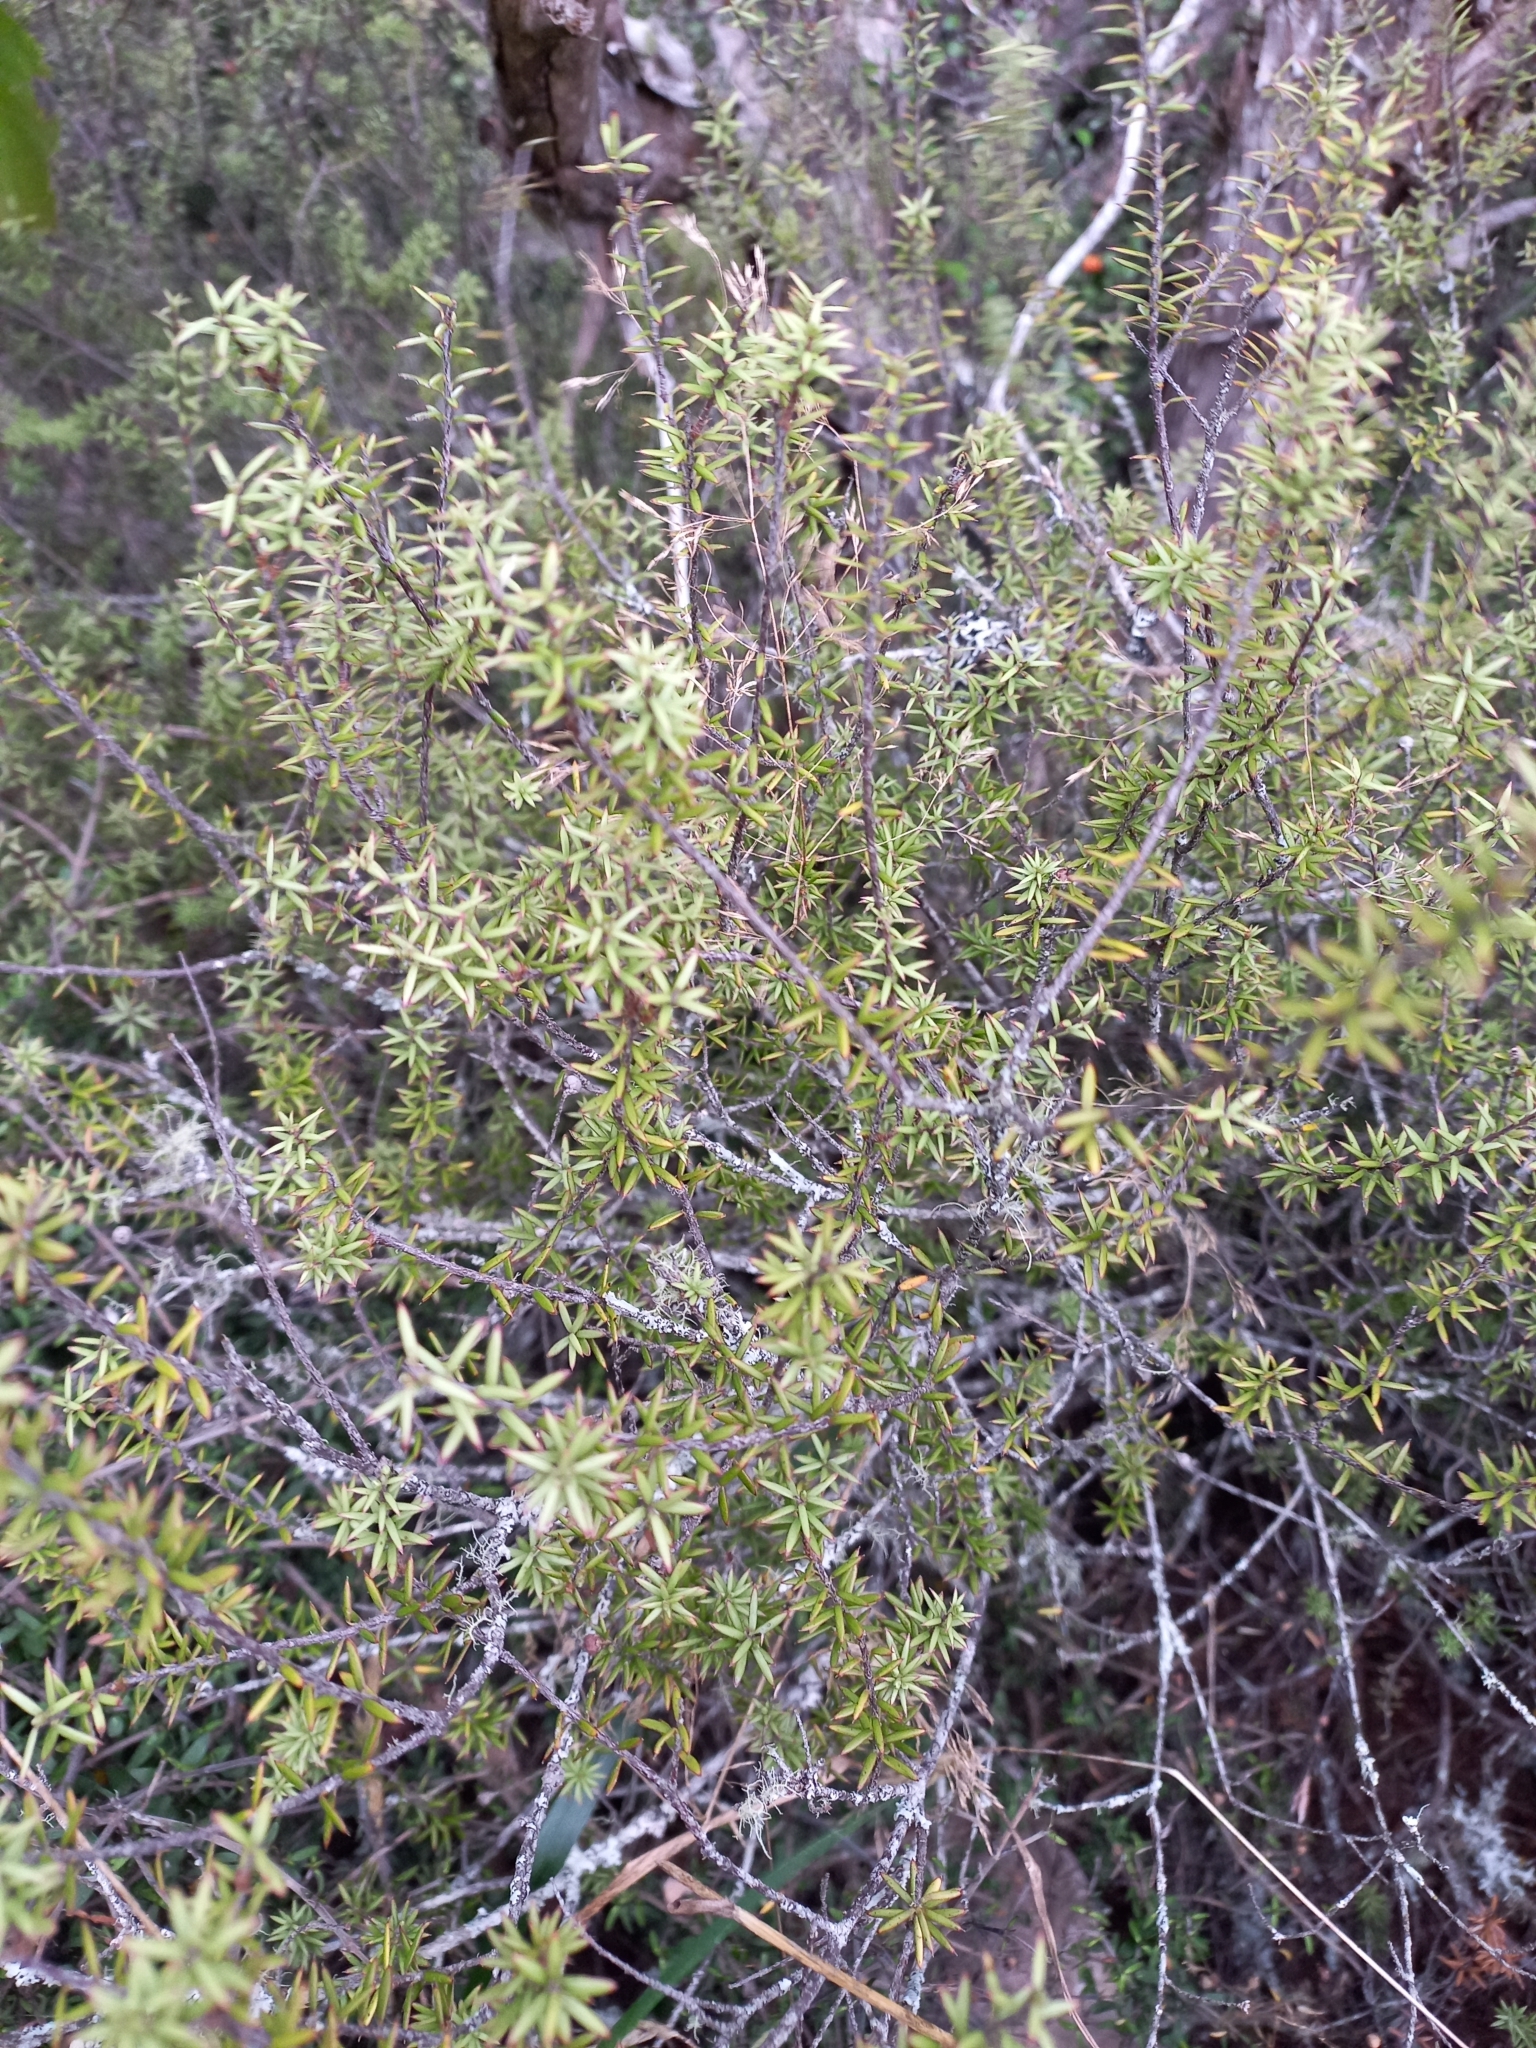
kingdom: Plantae
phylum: Tracheophyta
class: Magnoliopsida
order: Ericales
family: Ericaceae
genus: Leptecophylla
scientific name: Leptecophylla juniperina
